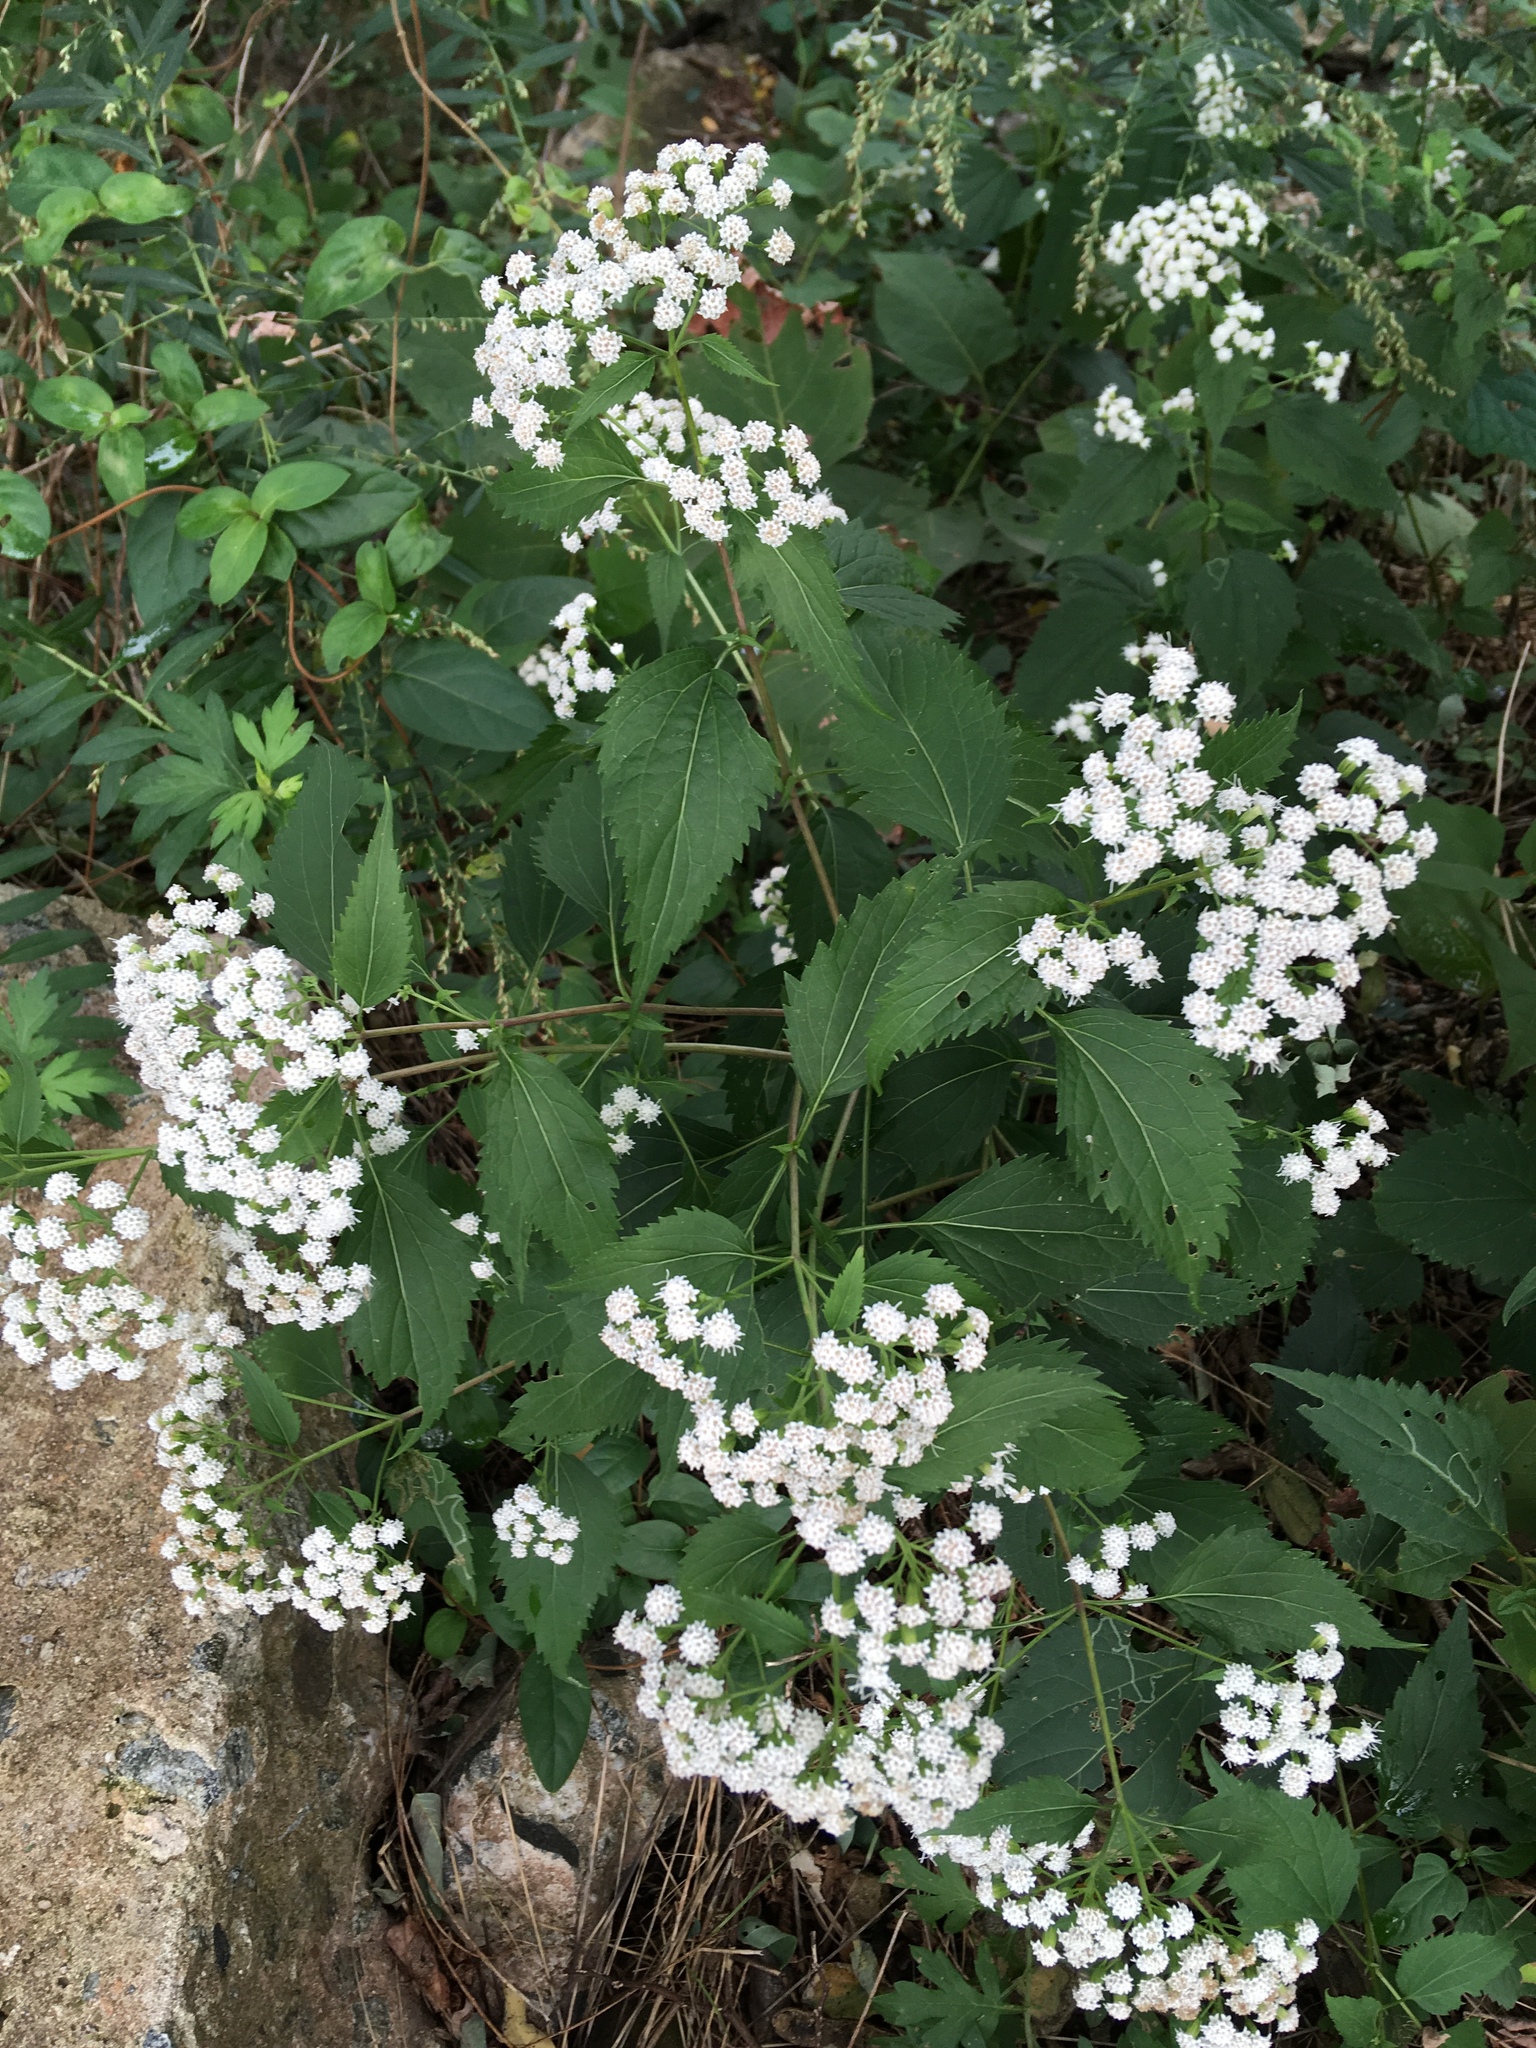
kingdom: Plantae
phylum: Tracheophyta
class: Magnoliopsida
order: Asterales
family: Asteraceae
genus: Ageratina
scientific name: Ageratina altissima
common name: White snakeroot
